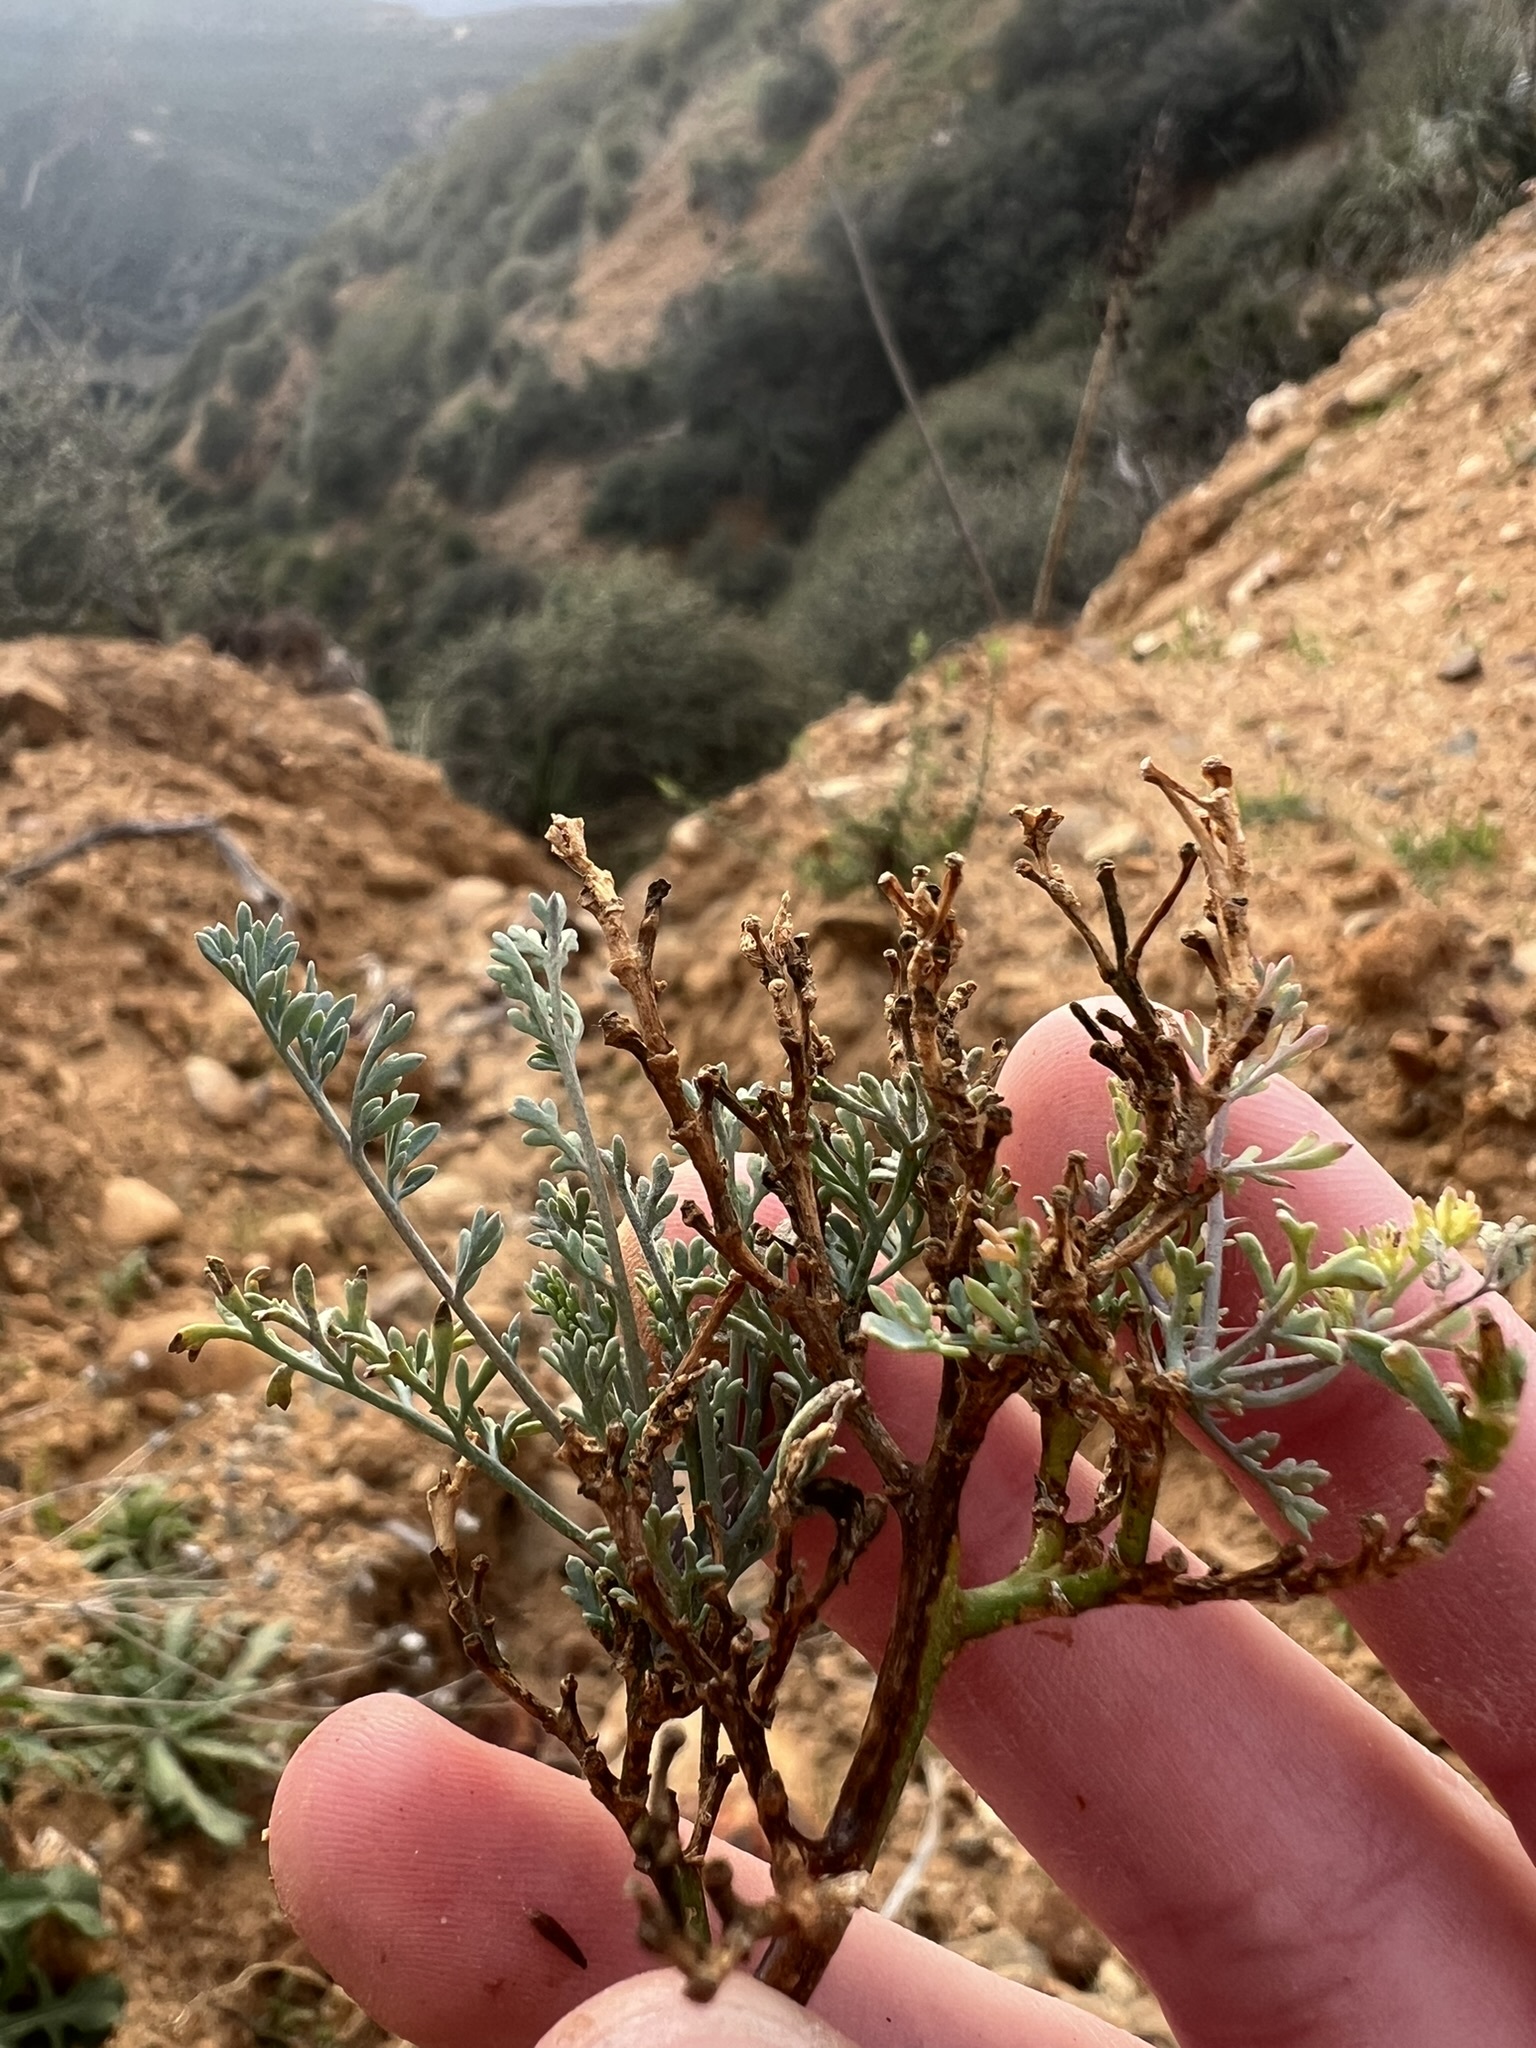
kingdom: Plantae
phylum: Tracheophyta
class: Magnoliopsida
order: Ranunculales
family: Papaveraceae
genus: Ehrendorferia
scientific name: Ehrendorferia ochroleuca
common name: White eardrops
